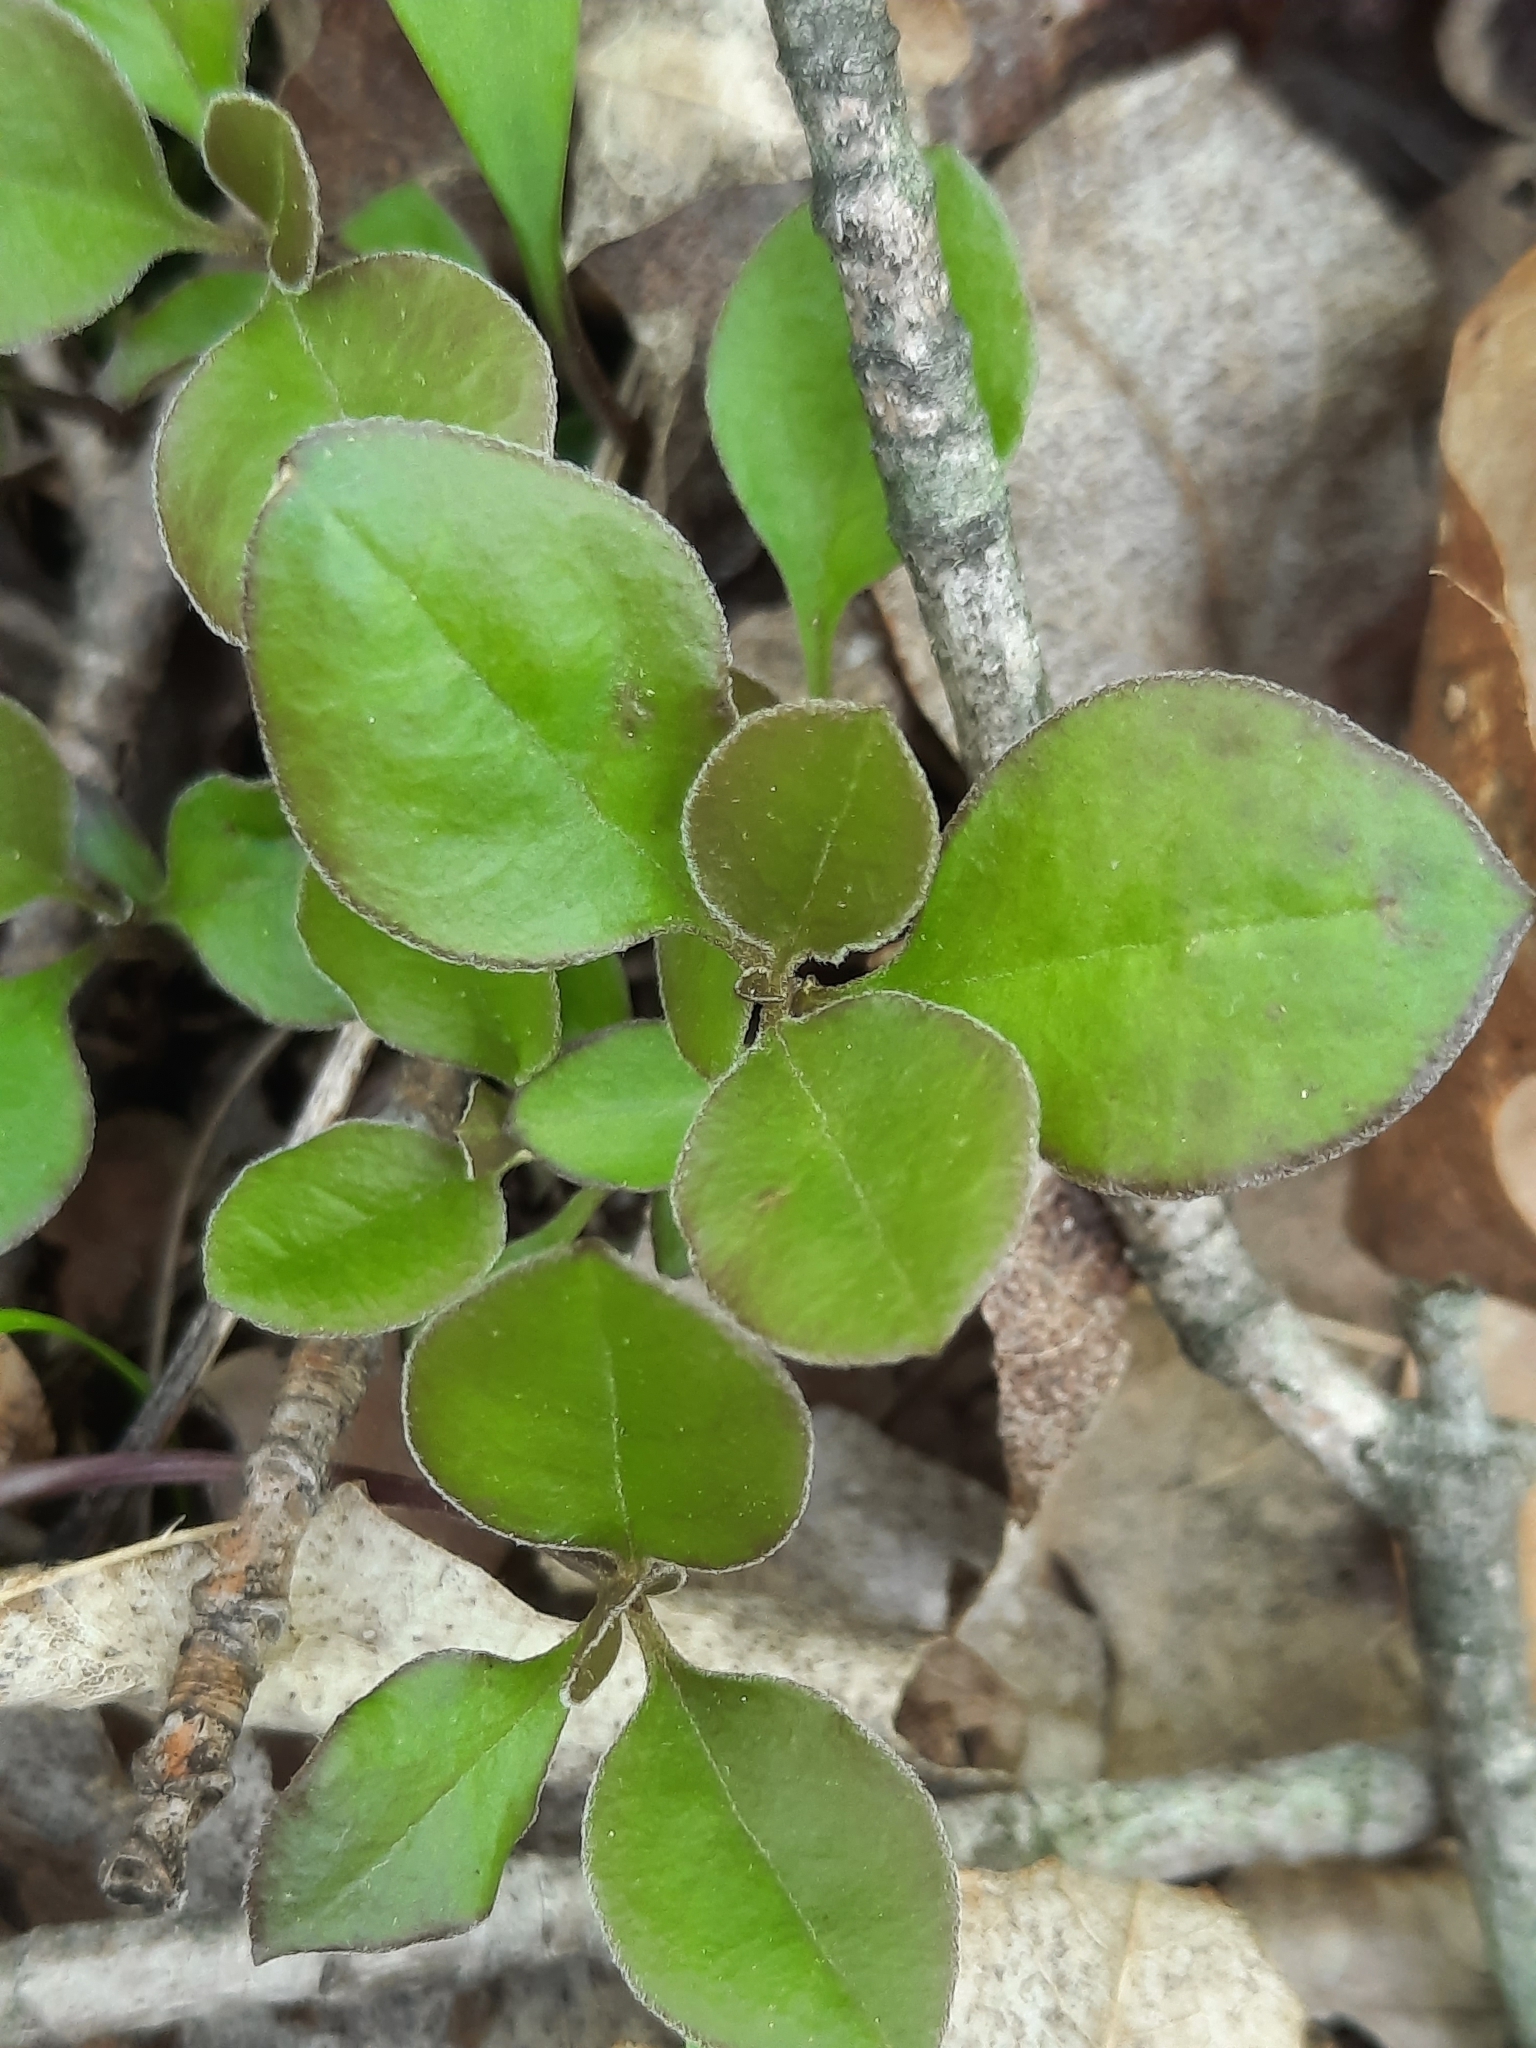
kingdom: Plantae
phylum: Tracheophyta
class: Magnoliopsida
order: Fabales
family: Polygalaceae
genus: Polygaloides
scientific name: Polygaloides paucifolia
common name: Bird-on-the-wing
